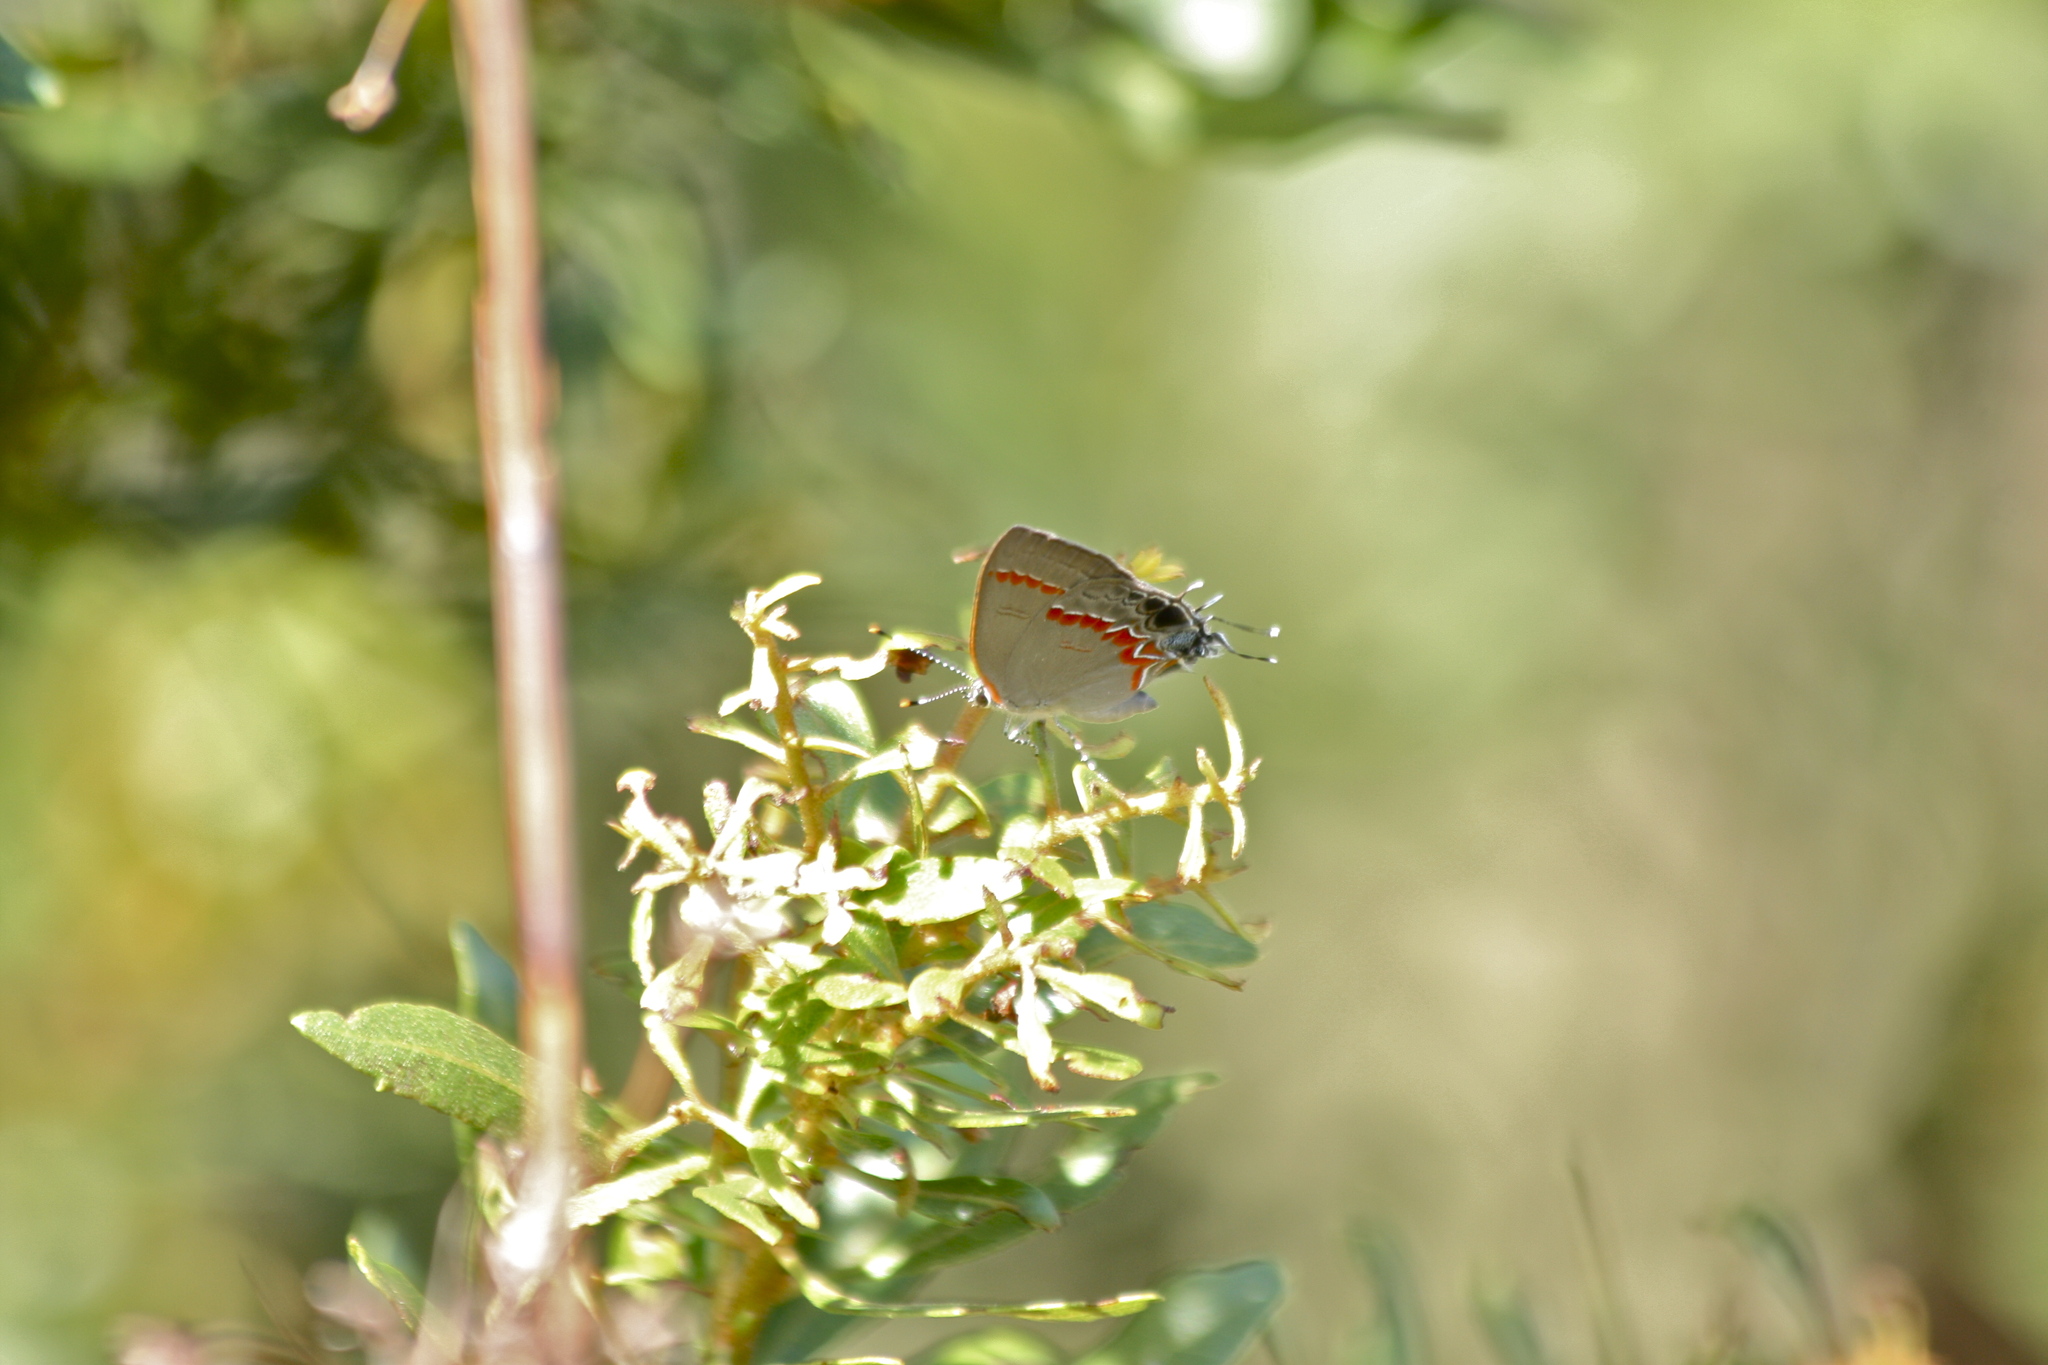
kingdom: Animalia
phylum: Arthropoda
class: Insecta
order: Lepidoptera
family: Lycaenidae
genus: Calycopis
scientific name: Calycopis cecrops
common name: Red-banded hairstreak
